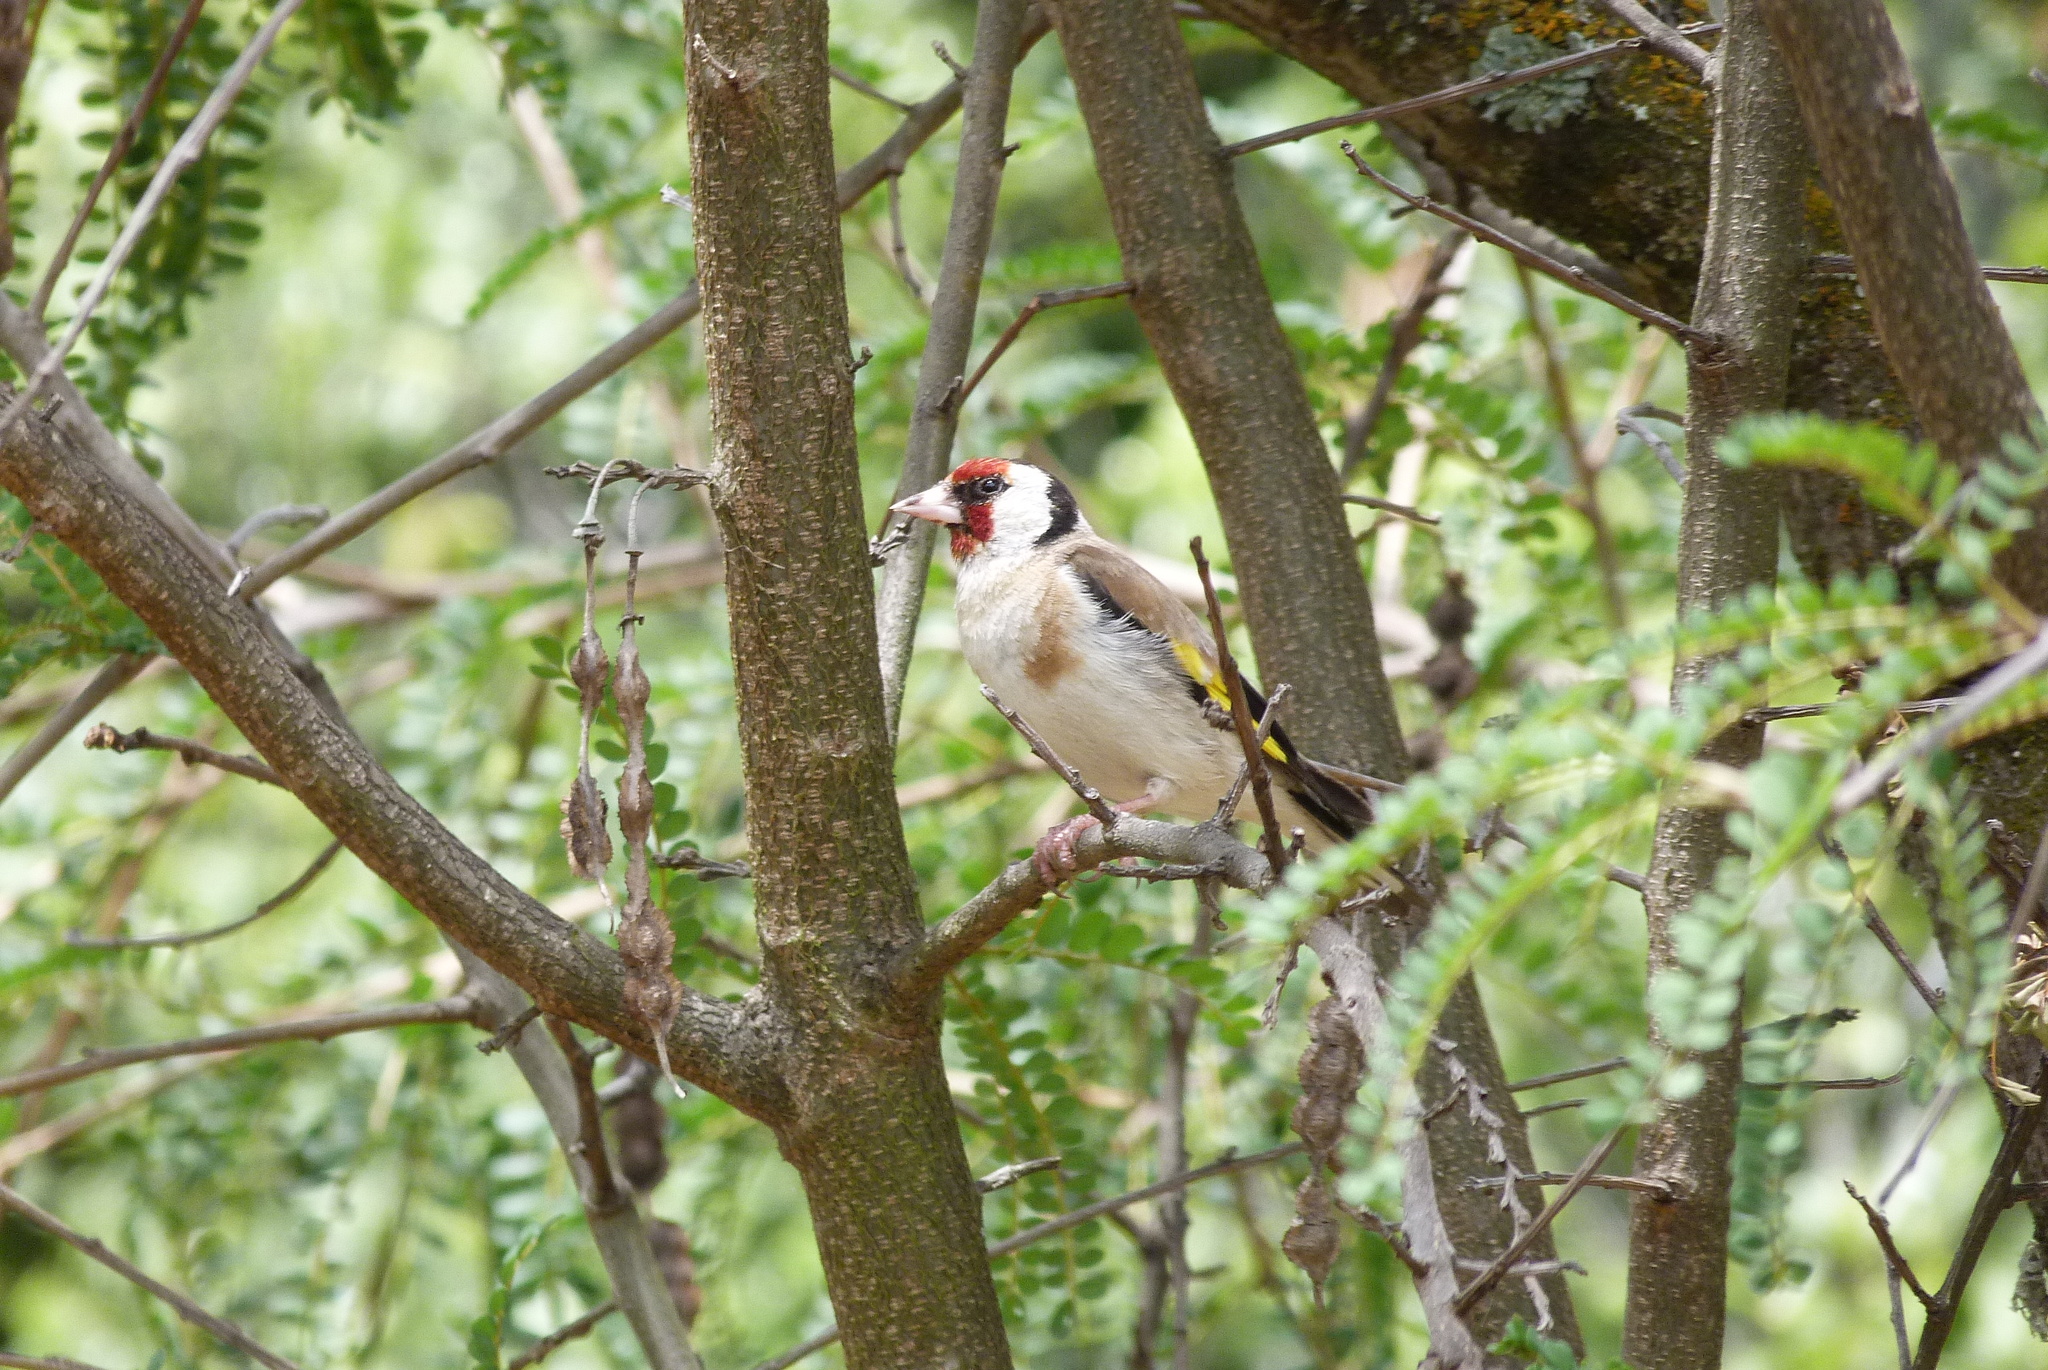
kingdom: Animalia
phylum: Chordata
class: Aves
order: Passeriformes
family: Fringillidae
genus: Carduelis
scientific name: Carduelis carduelis
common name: European goldfinch
